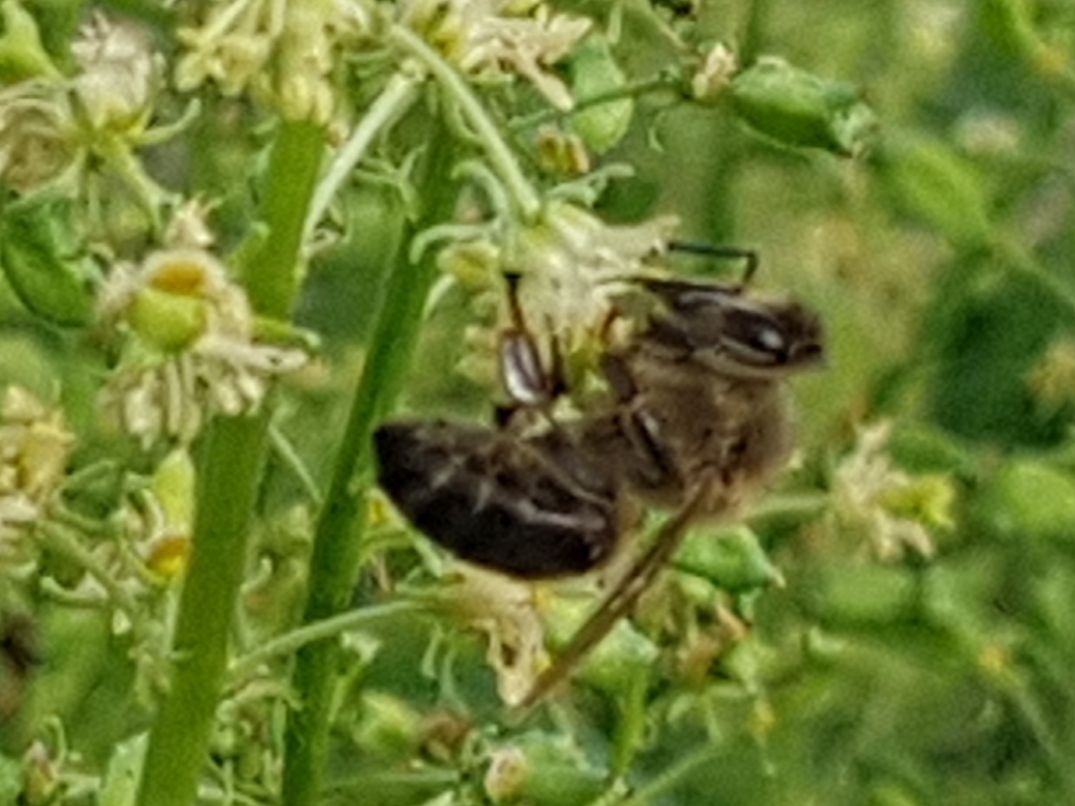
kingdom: Animalia
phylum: Arthropoda
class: Insecta
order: Hymenoptera
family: Apidae
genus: Apis
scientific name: Apis mellifera
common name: Honey bee
